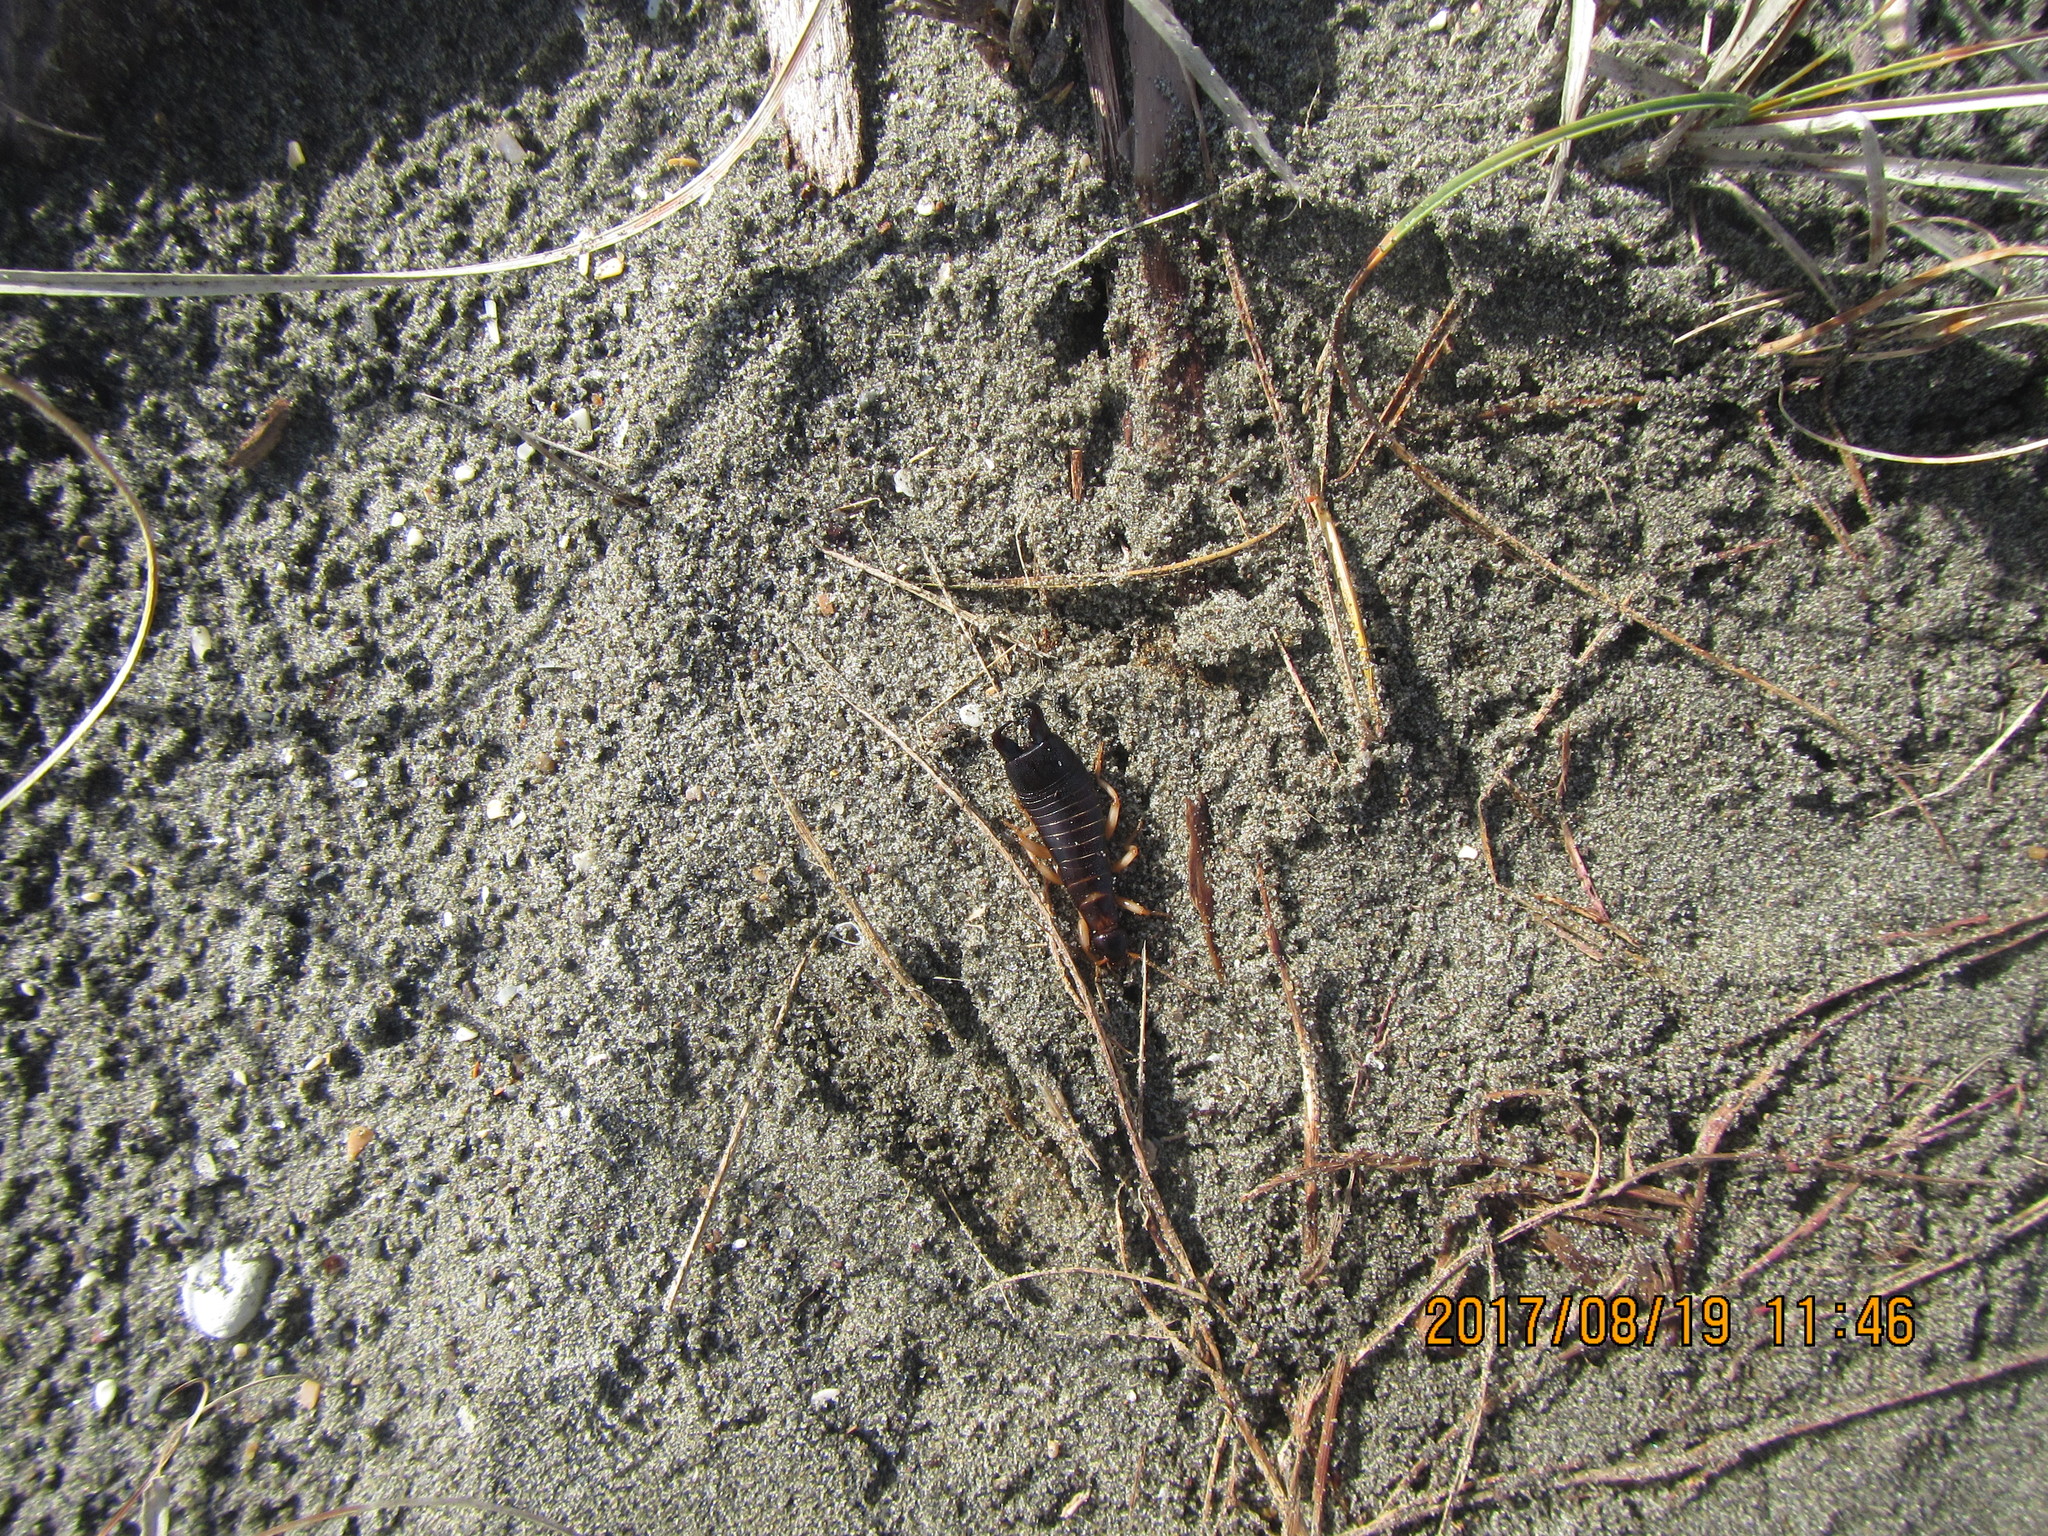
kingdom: Animalia
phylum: Arthropoda
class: Insecta
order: Dermaptera
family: Anisolabididae
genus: Anisolabis
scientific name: Anisolabis littorea
